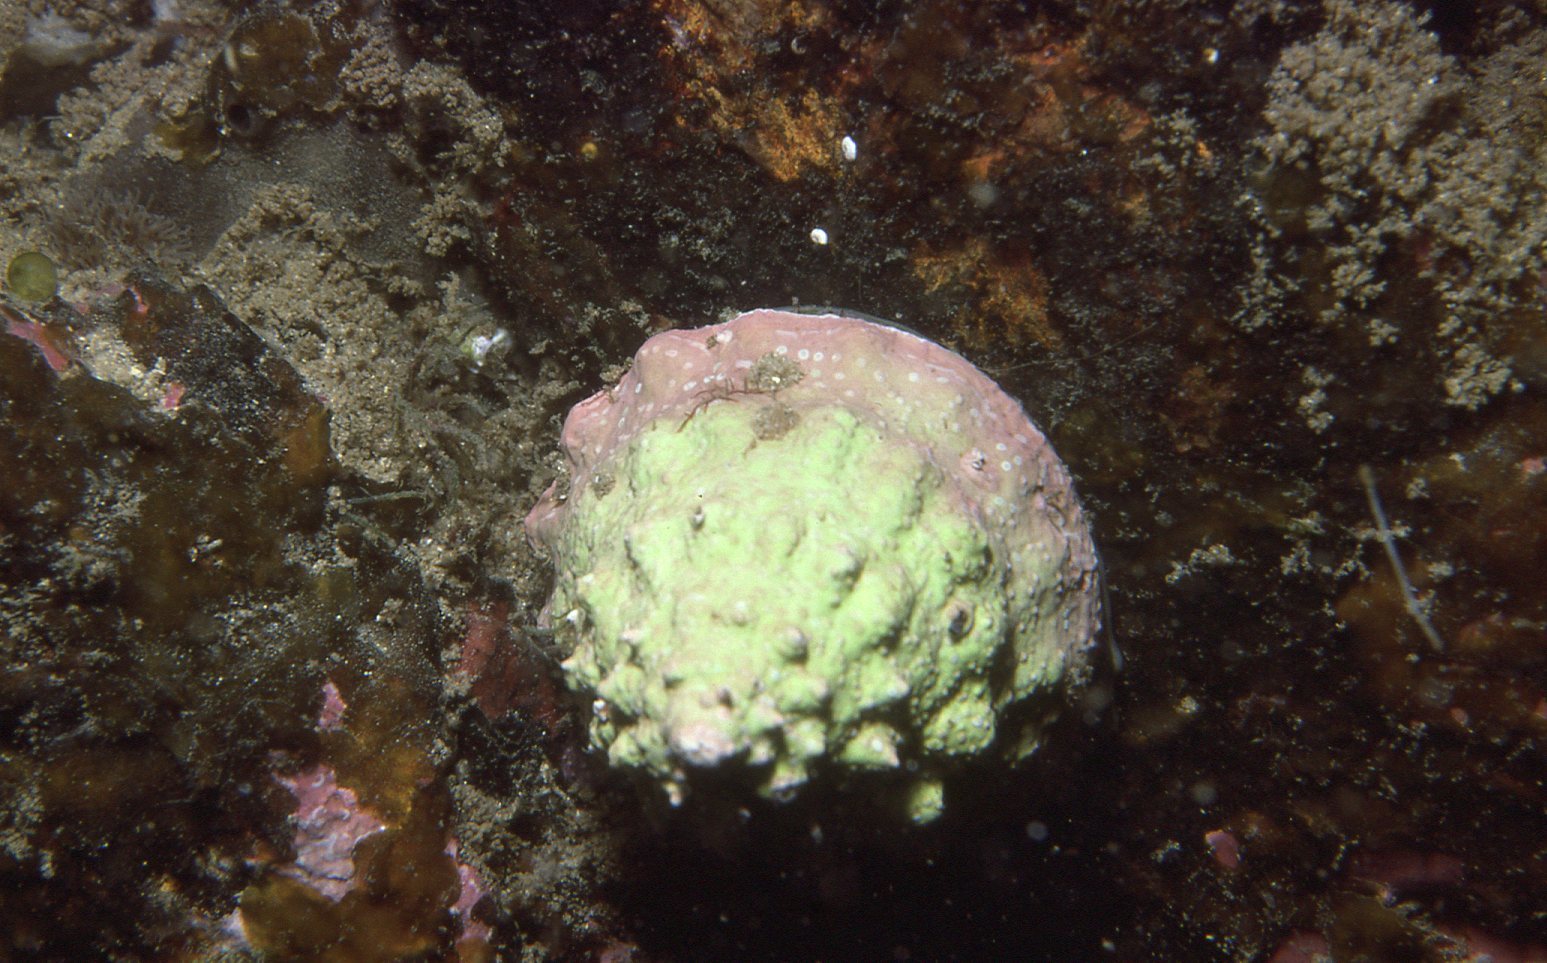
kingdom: Animalia
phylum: Mollusca
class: Gastropoda
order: Trochida
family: Turbinidae
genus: Astralium
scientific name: Astralium tentoriiforme
